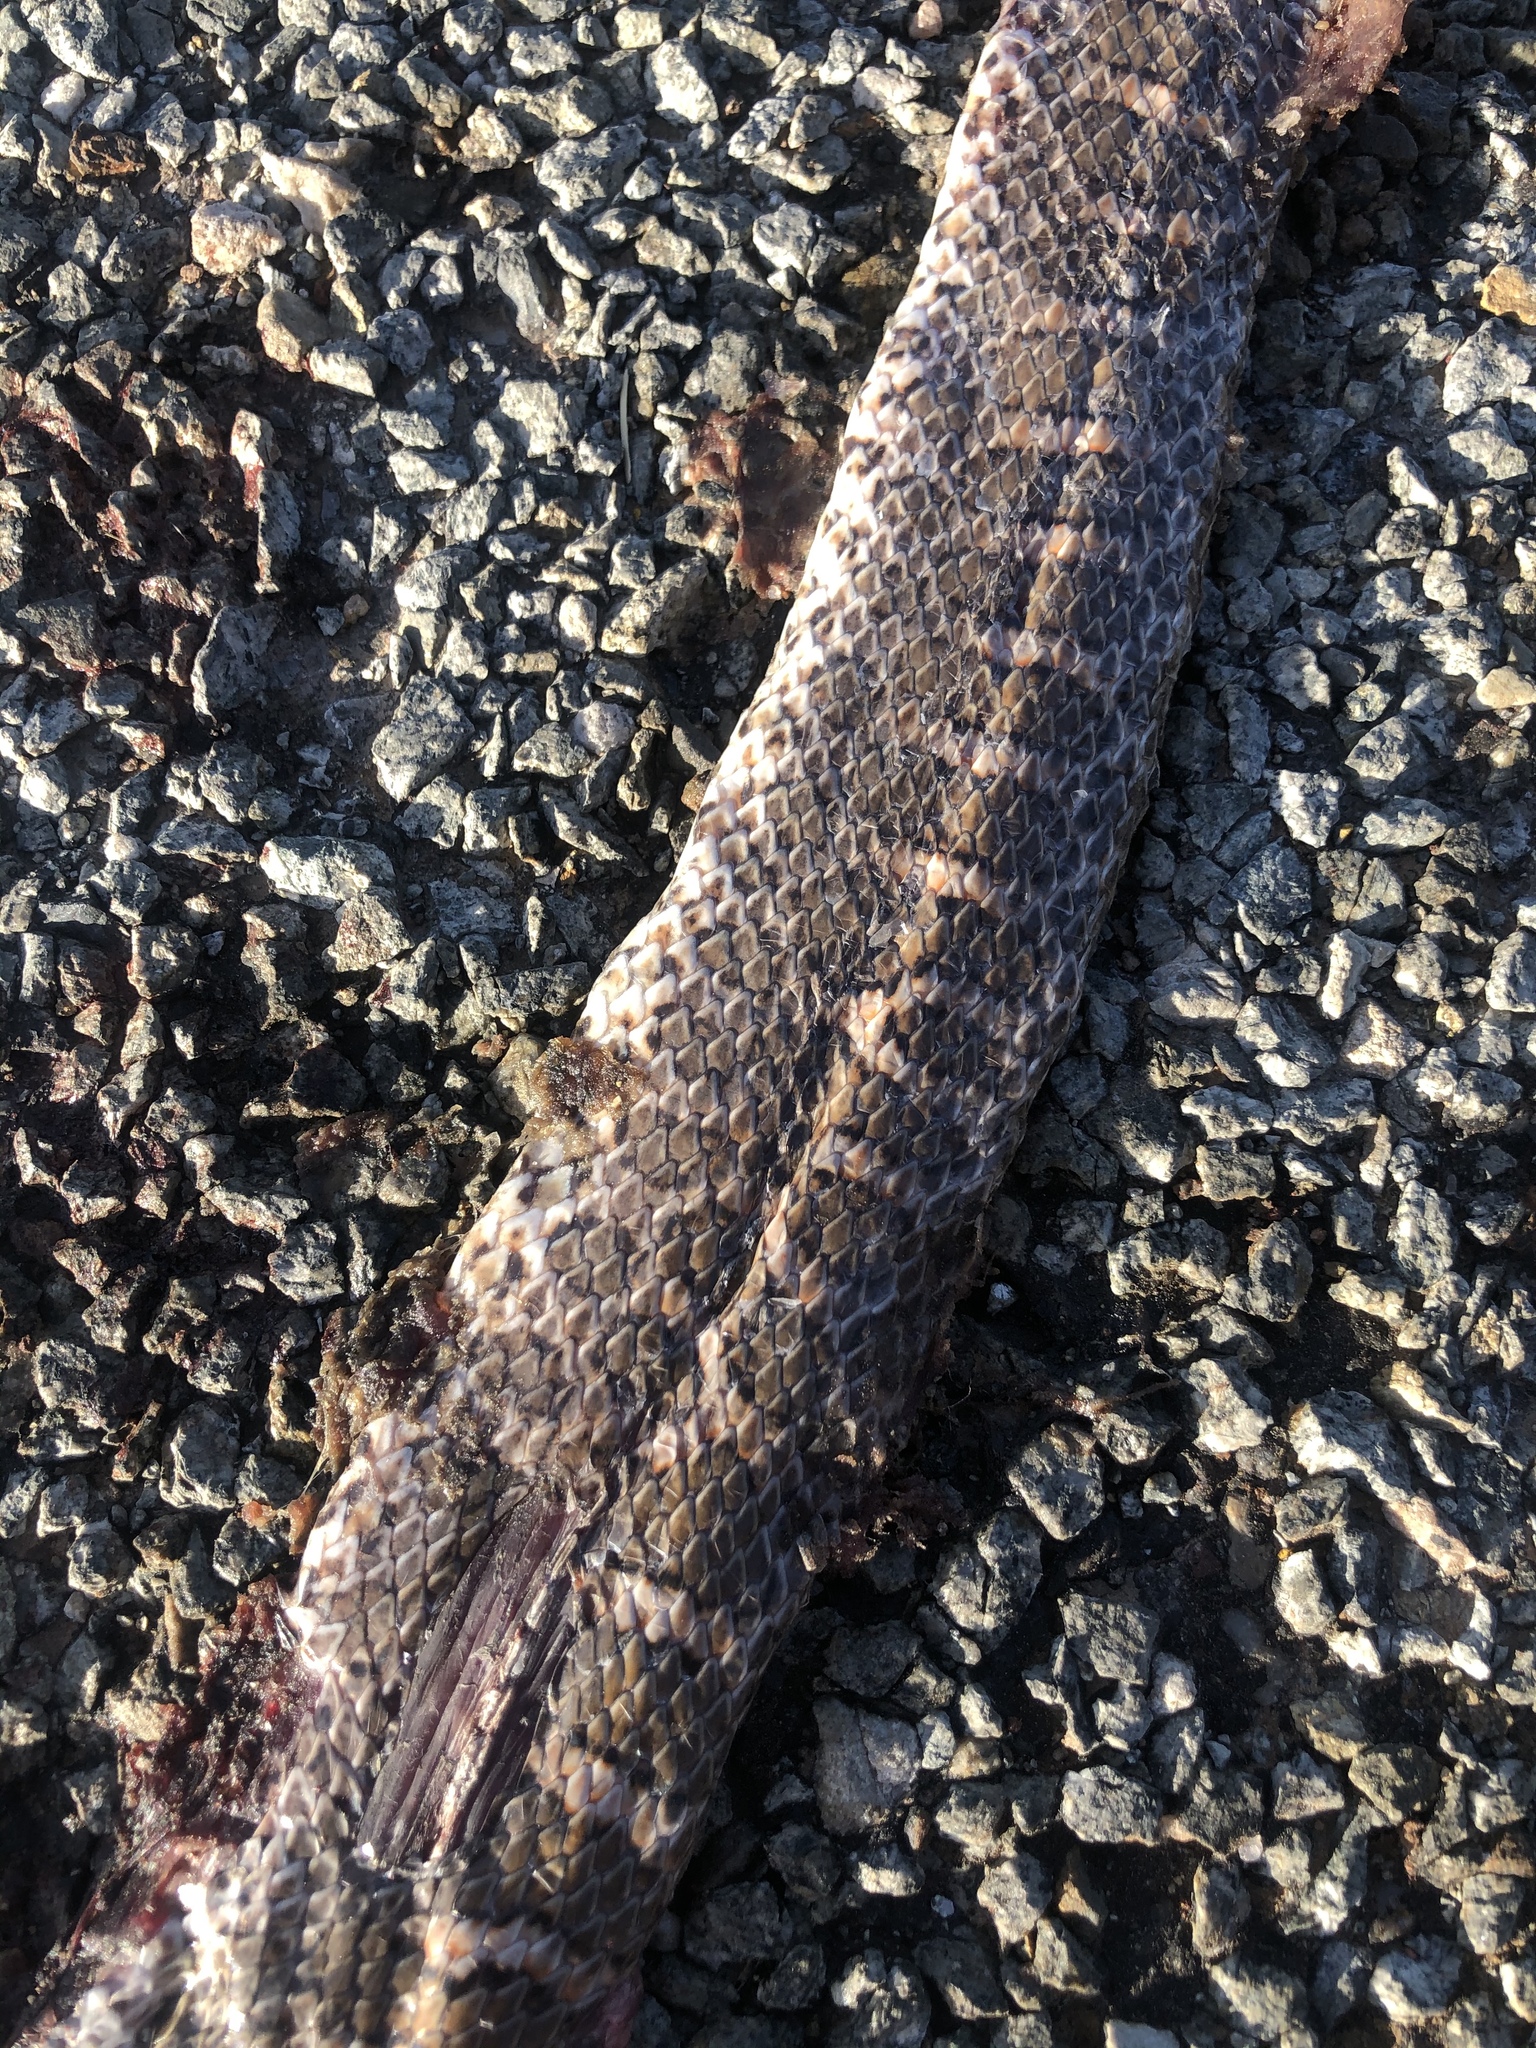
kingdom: Animalia
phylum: Chordata
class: Squamata
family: Colubridae
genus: Arizona
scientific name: Arizona elegans
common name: Glossy snake
